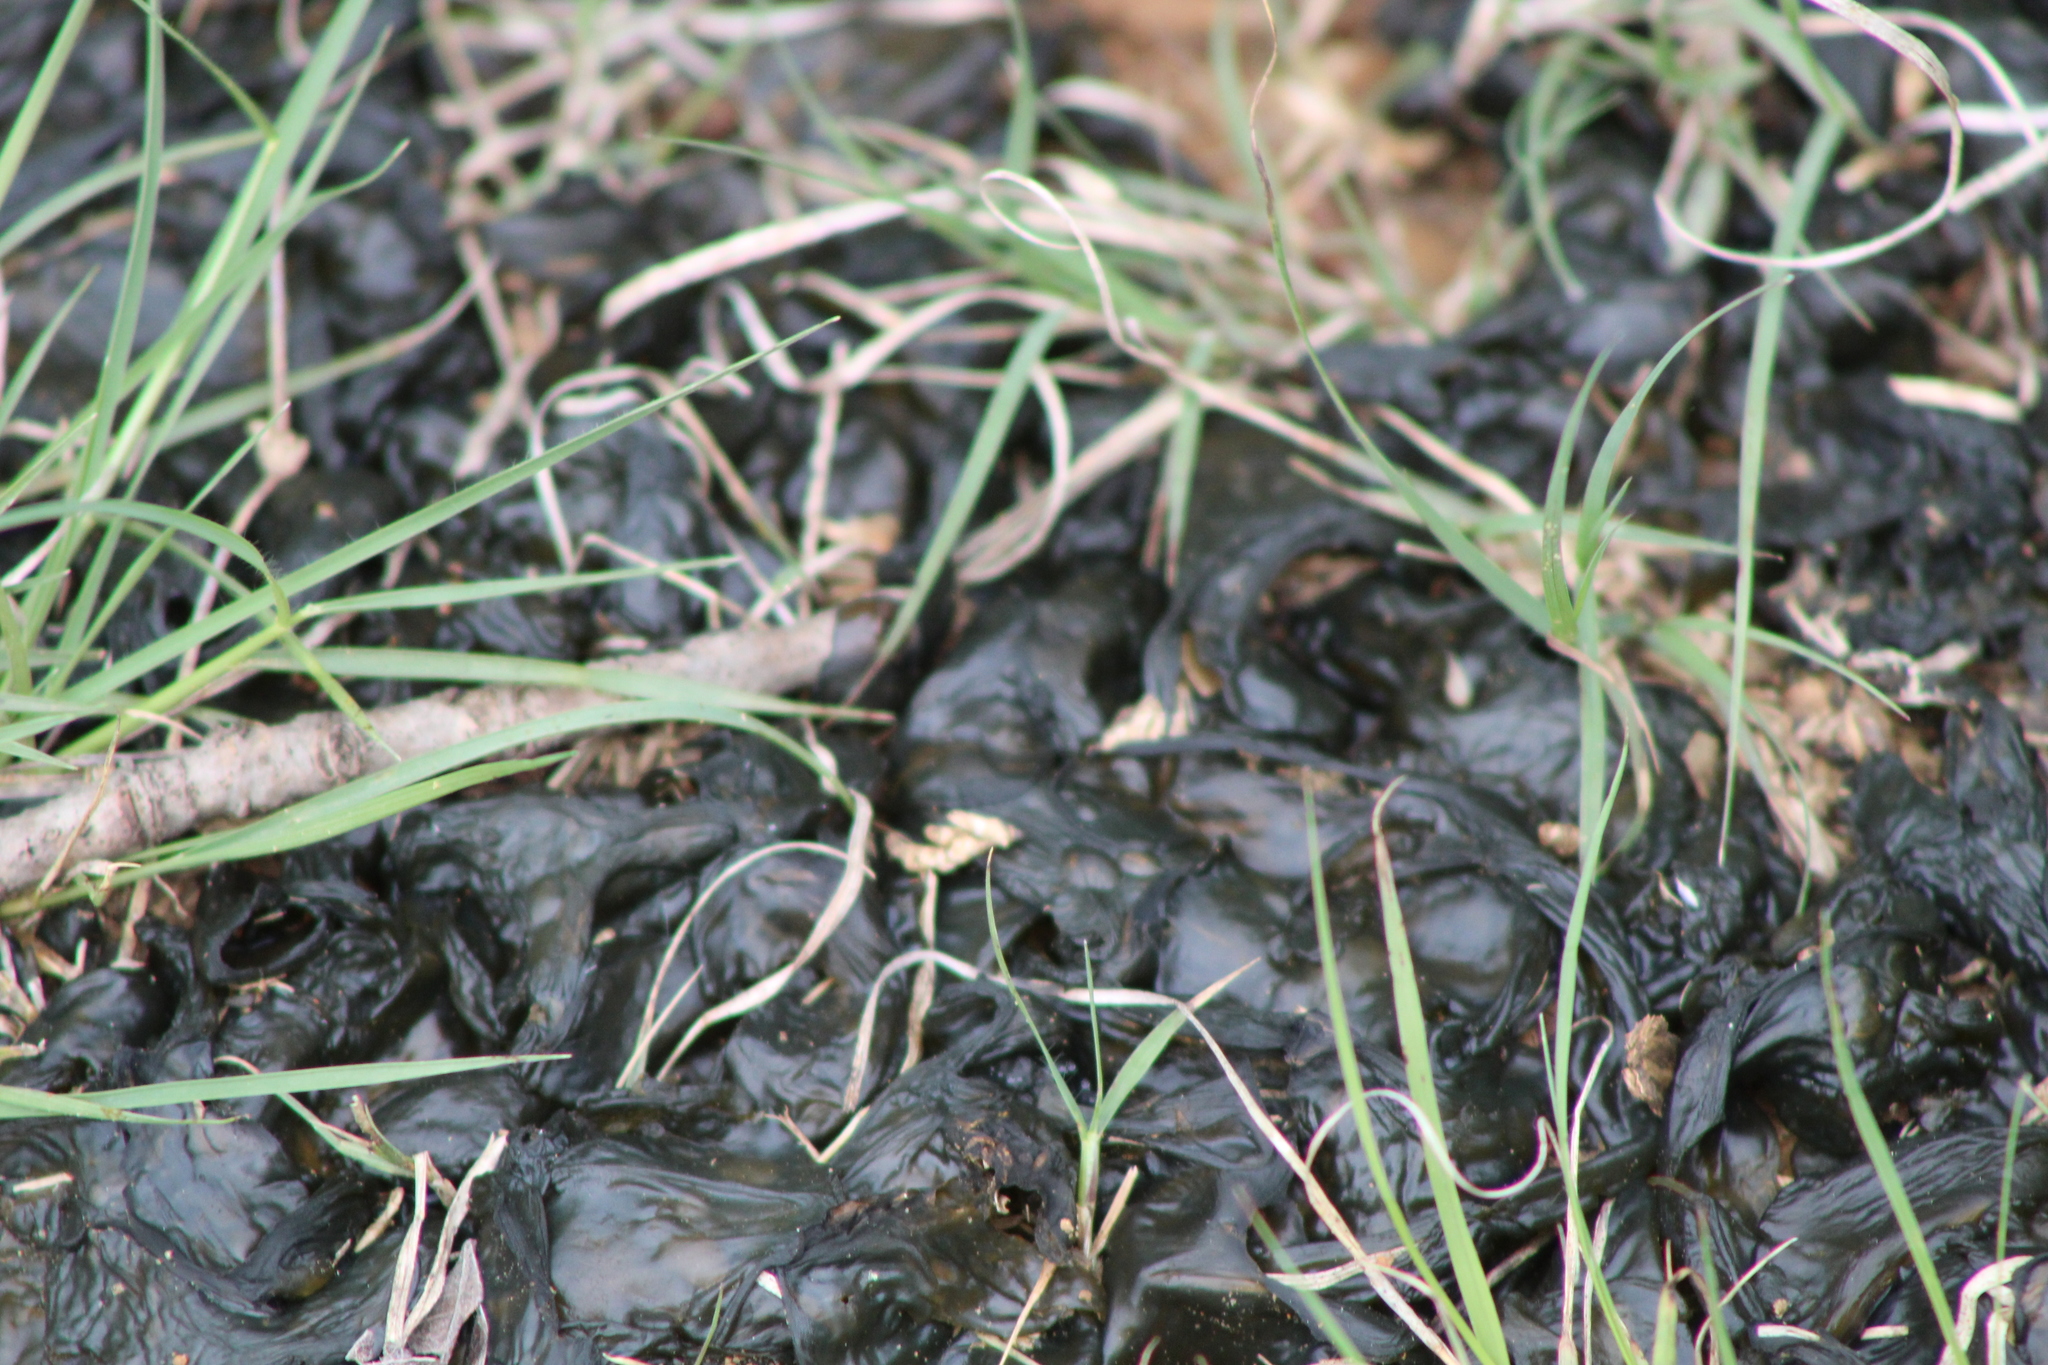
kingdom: Bacteria
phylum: Cyanobacteria
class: Cyanobacteriia
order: Cyanobacteriales
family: Nostocaceae
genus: Nostoc
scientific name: Nostoc commune
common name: Star jelly
